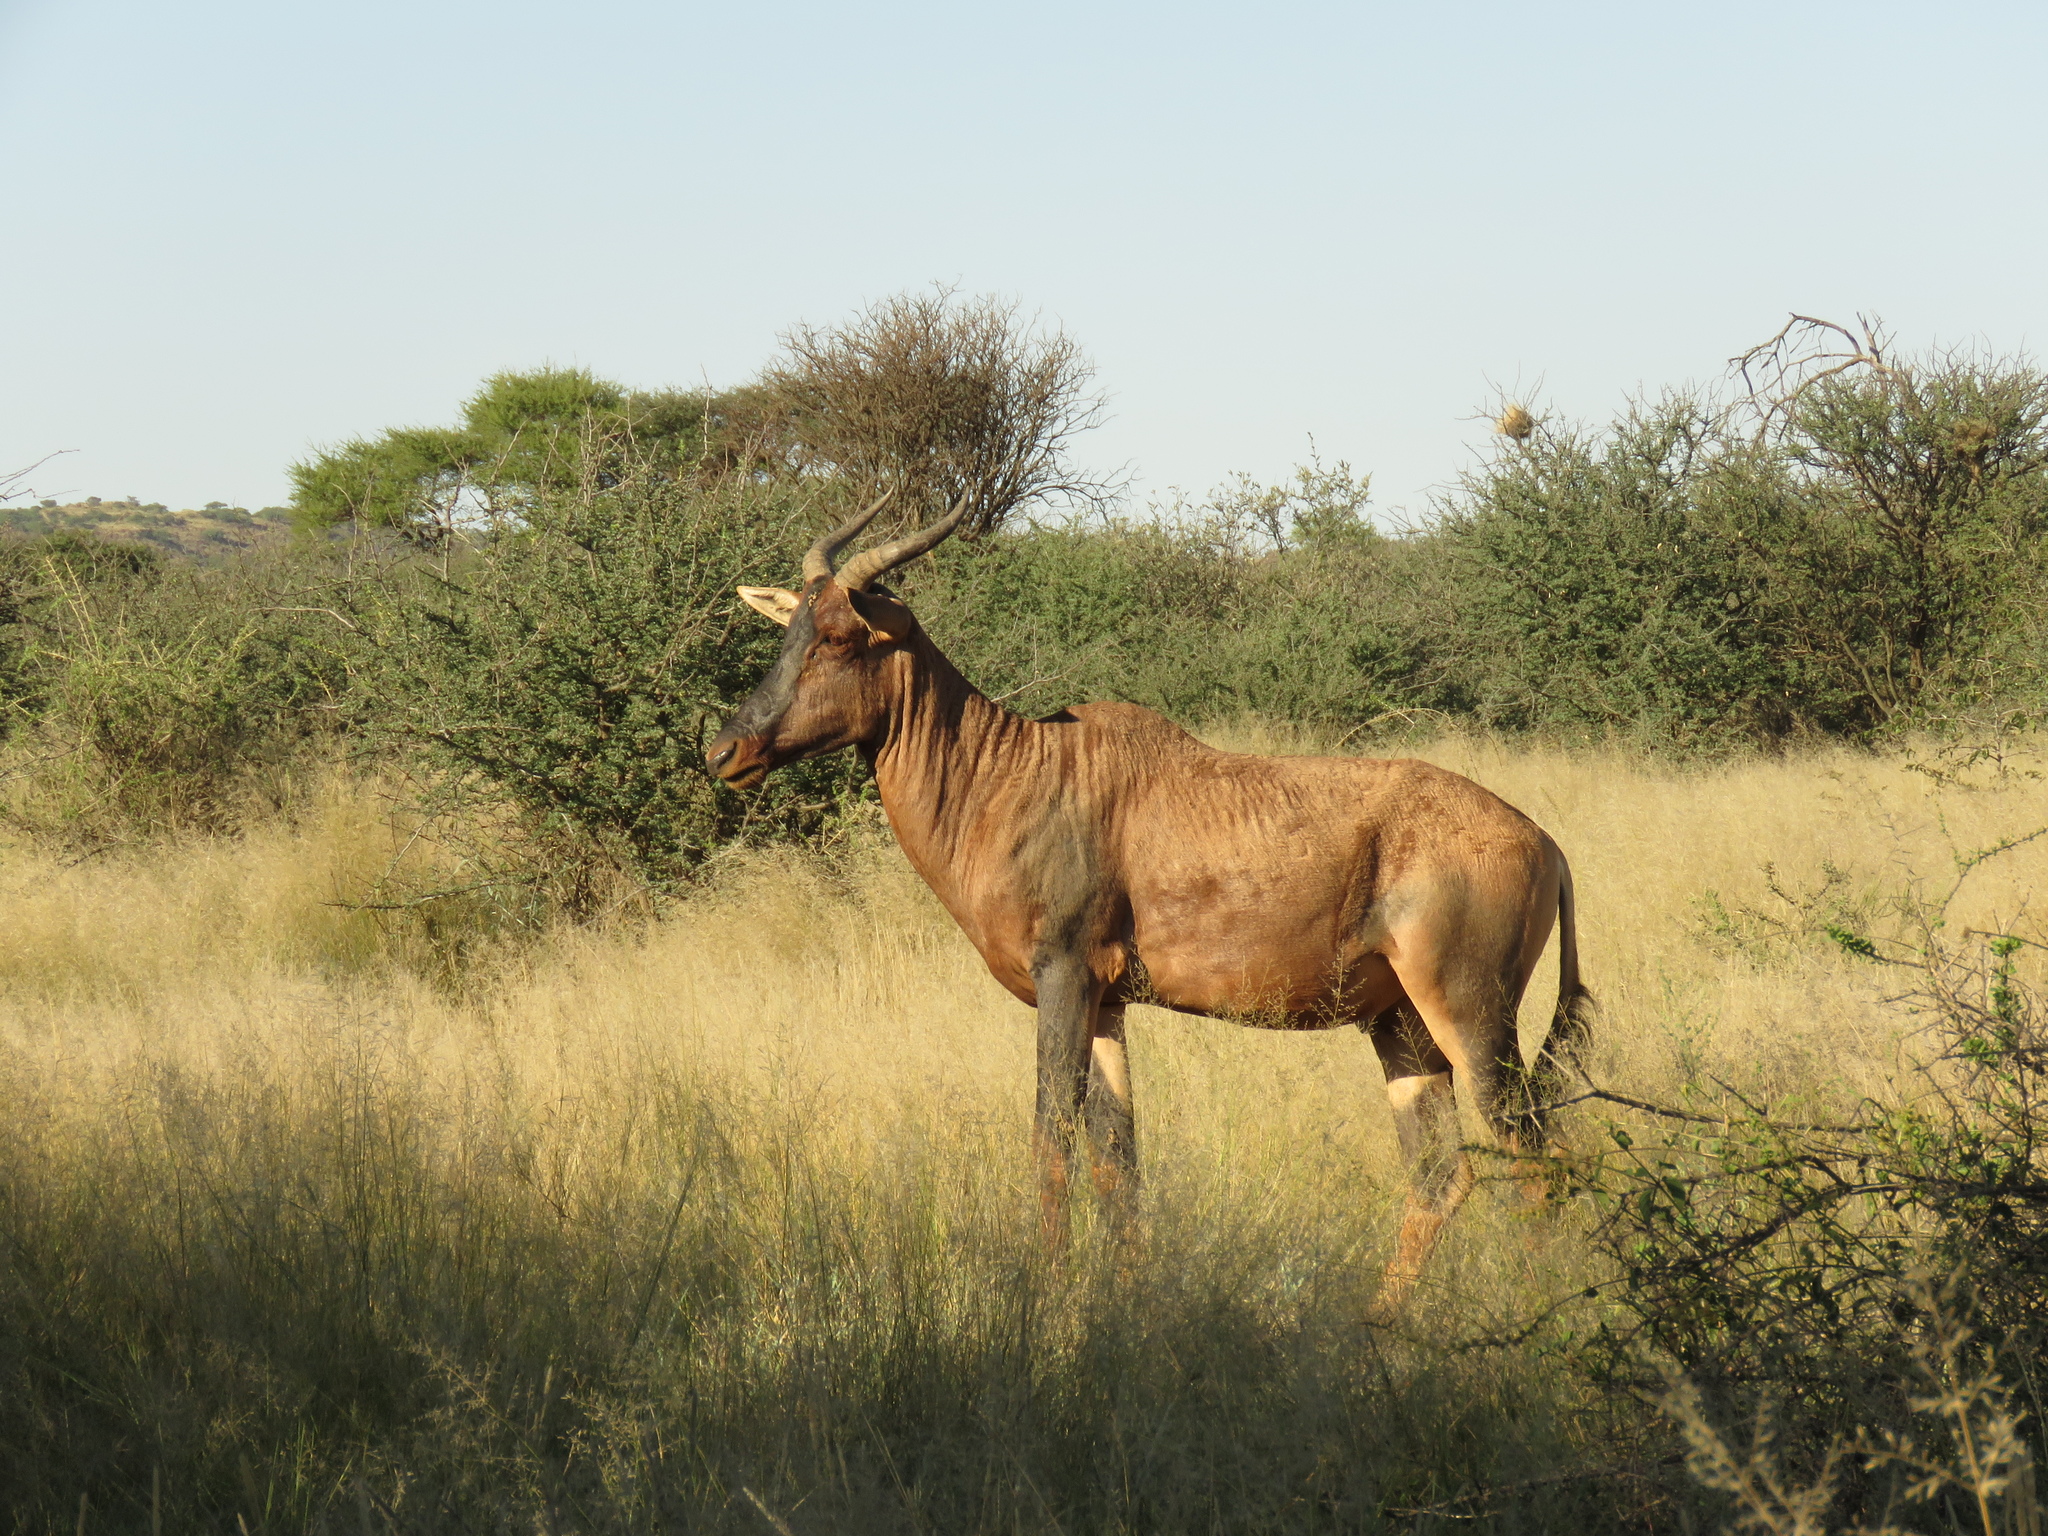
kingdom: Animalia
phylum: Chordata
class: Mammalia
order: Artiodactyla
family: Bovidae
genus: Damaliscus
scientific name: Damaliscus lunatus
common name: Common tsessebe
